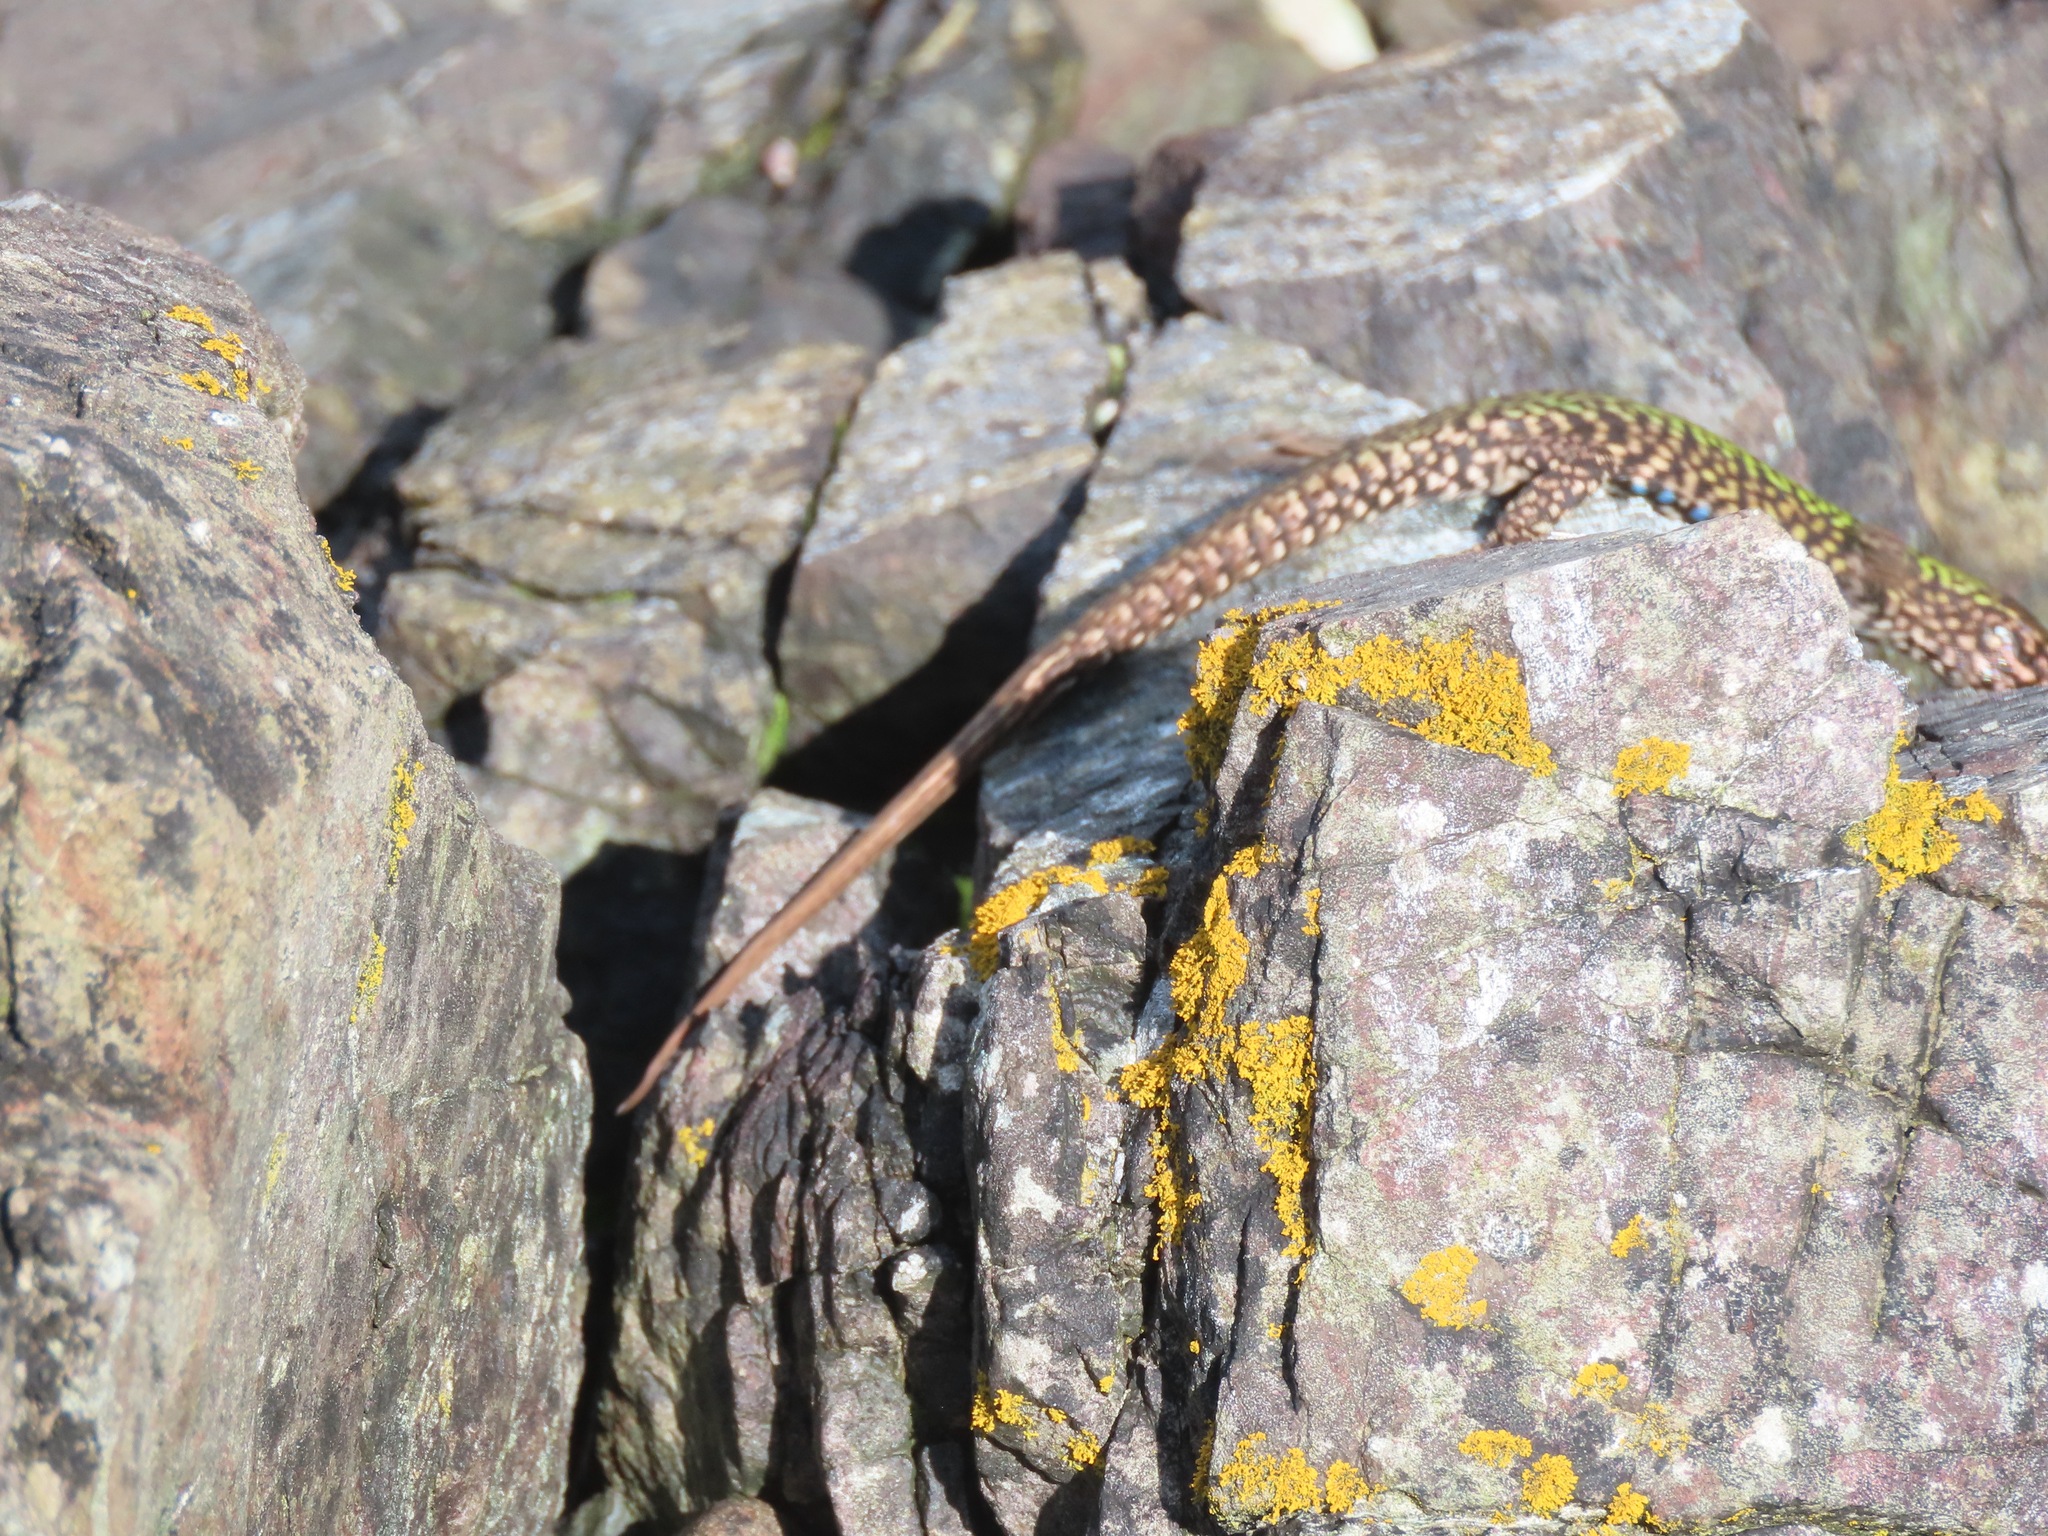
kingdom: Animalia
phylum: Chordata
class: Squamata
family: Lacertidae
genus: Podarcis
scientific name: Podarcis muralis
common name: Common wall lizard
